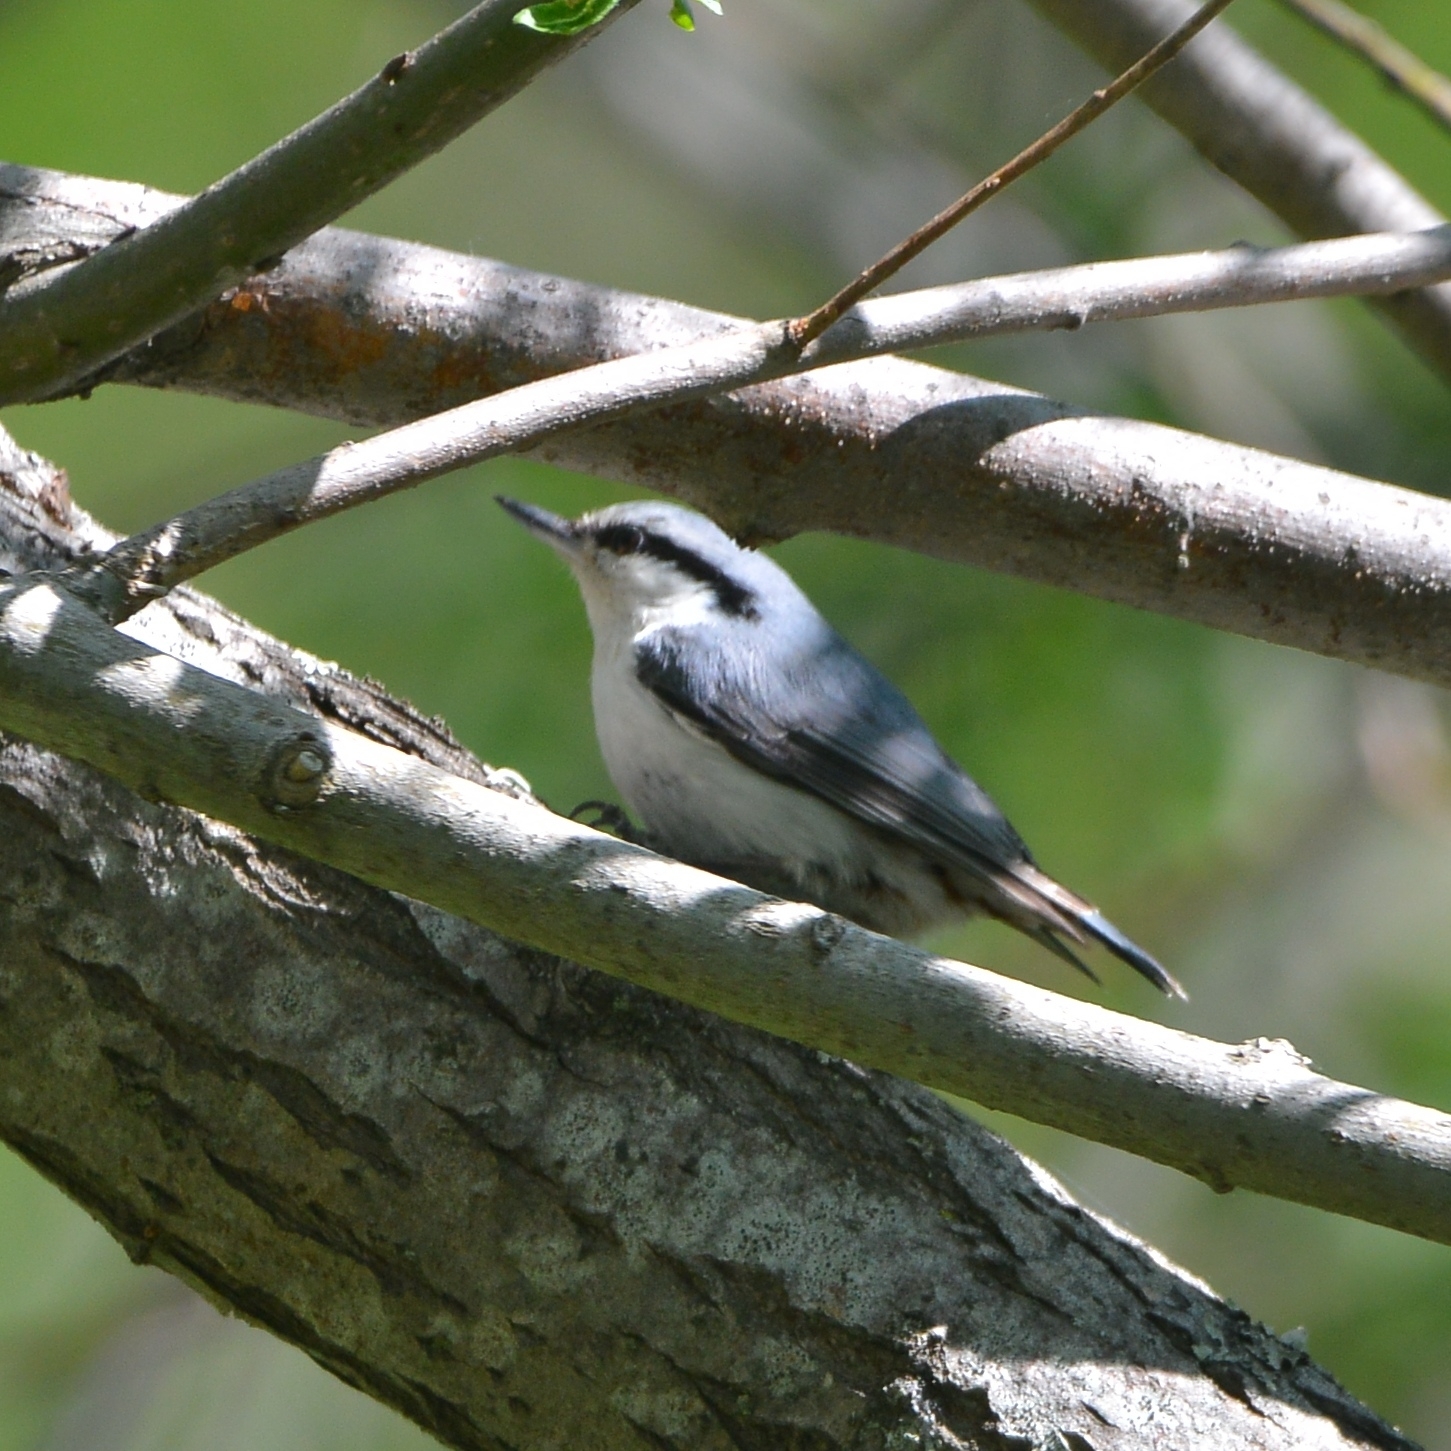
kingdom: Animalia
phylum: Chordata
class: Aves
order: Passeriformes
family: Sittidae
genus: Sitta
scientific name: Sitta europaea
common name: Eurasian nuthatch
